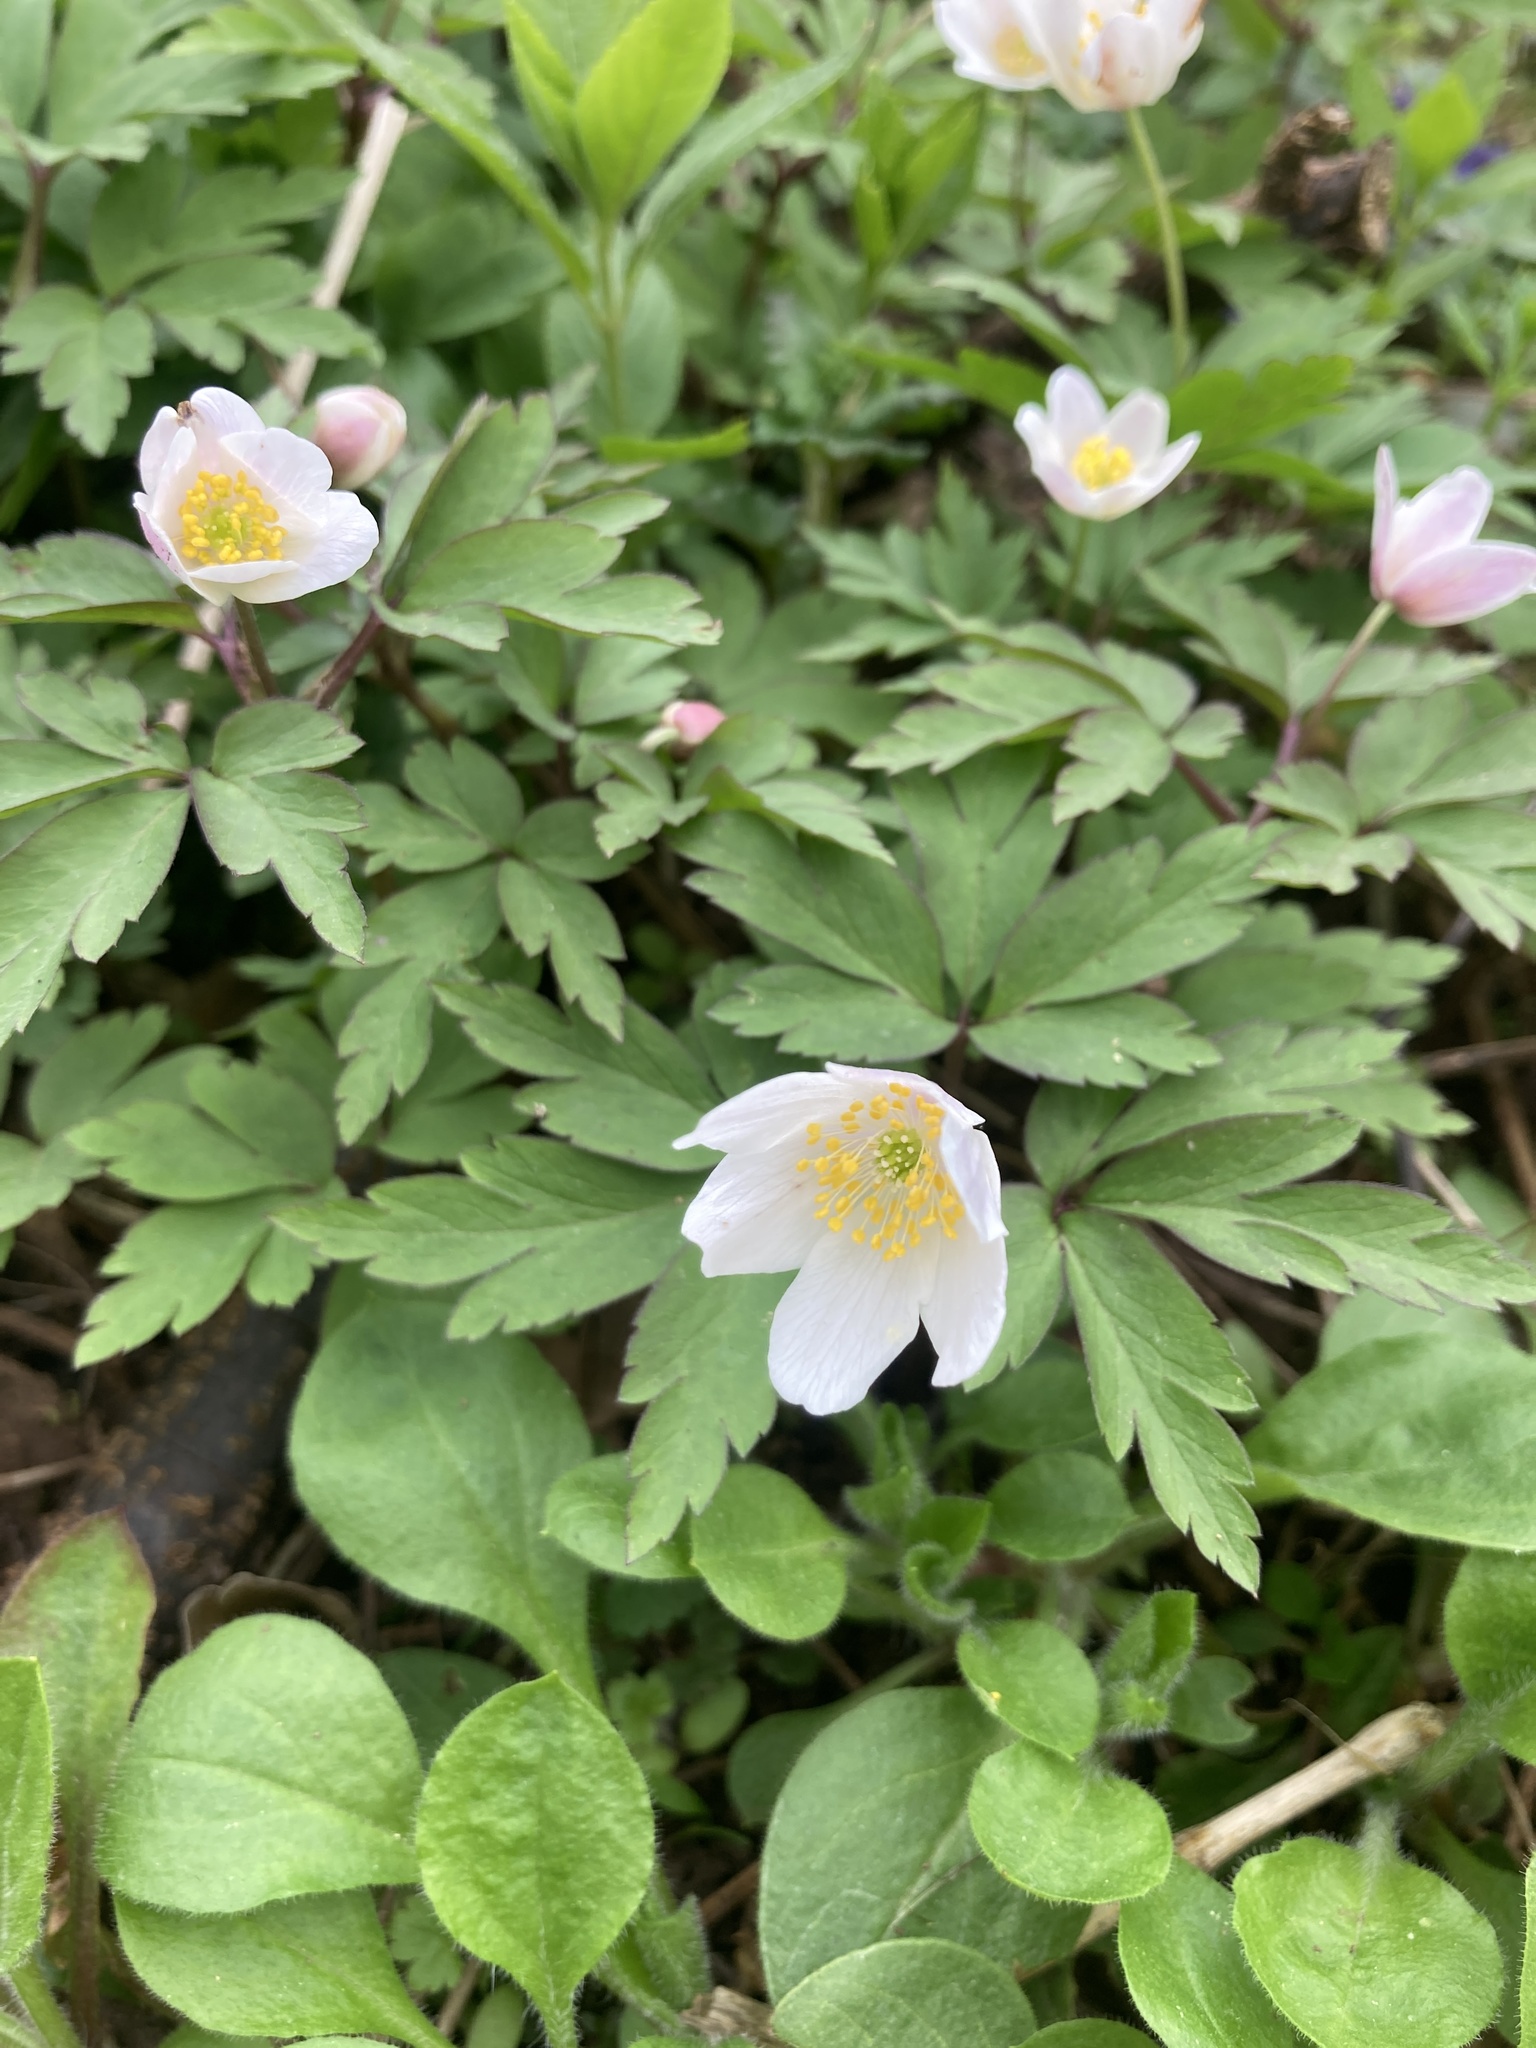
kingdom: Plantae
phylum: Tracheophyta
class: Magnoliopsida
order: Ranunculales
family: Ranunculaceae
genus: Anemone
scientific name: Anemone nemorosa
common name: Wood anemone
